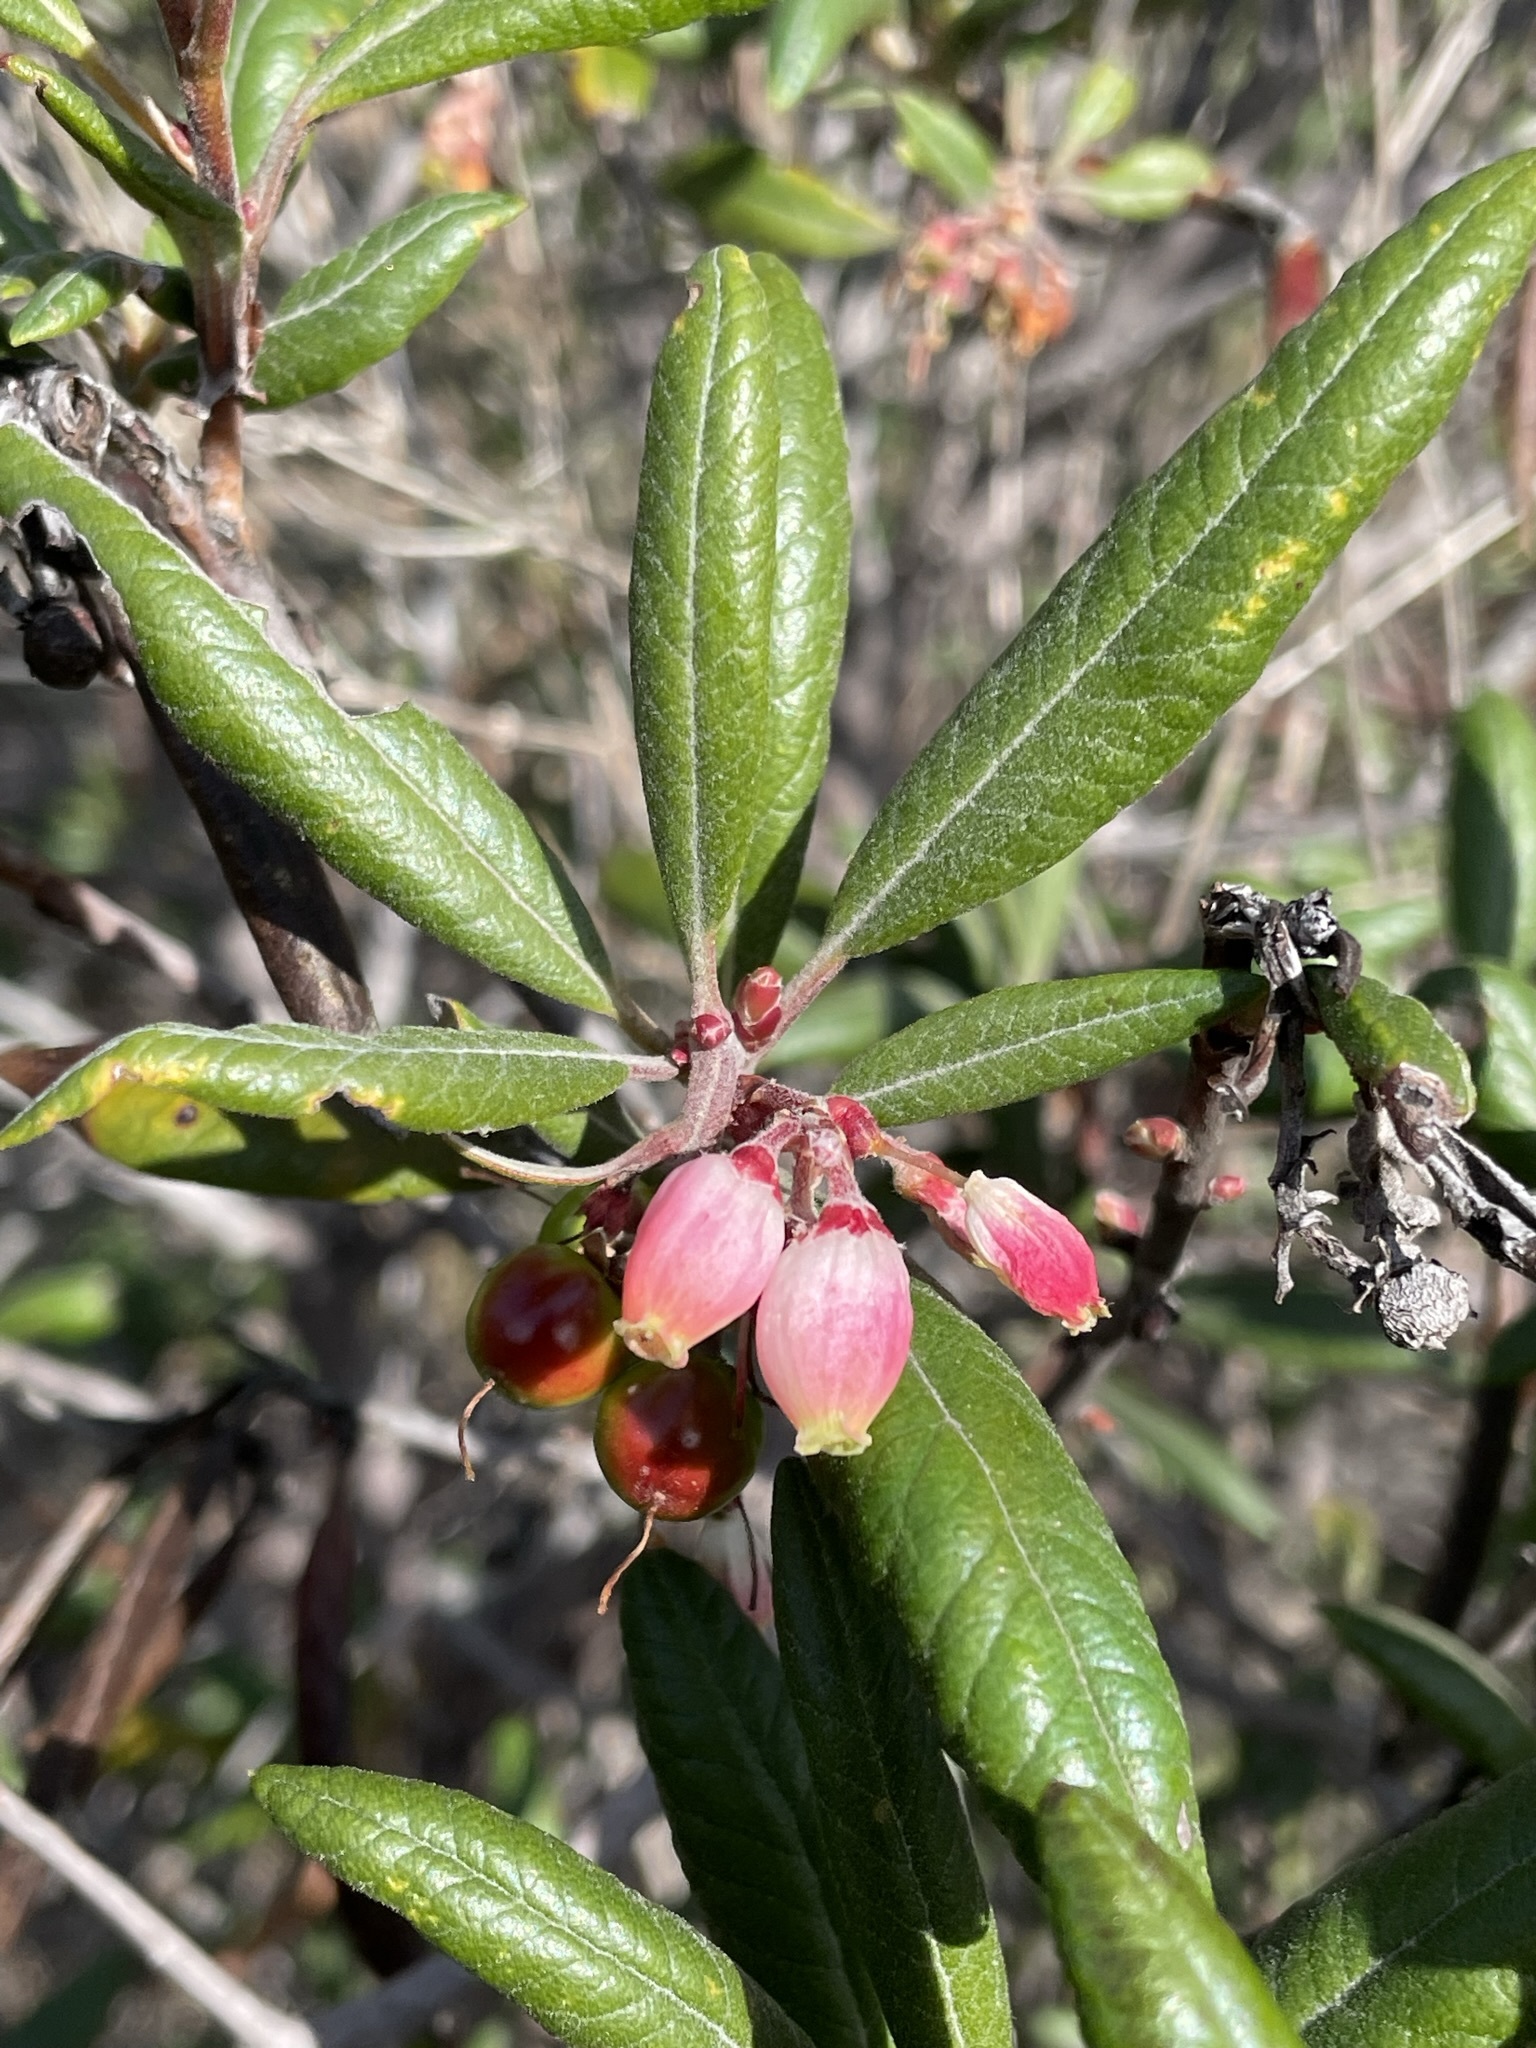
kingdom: Plantae
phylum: Tracheophyta
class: Magnoliopsida
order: Ericales
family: Ericaceae
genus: Arctostaphylos
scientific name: Arctostaphylos bicolor
